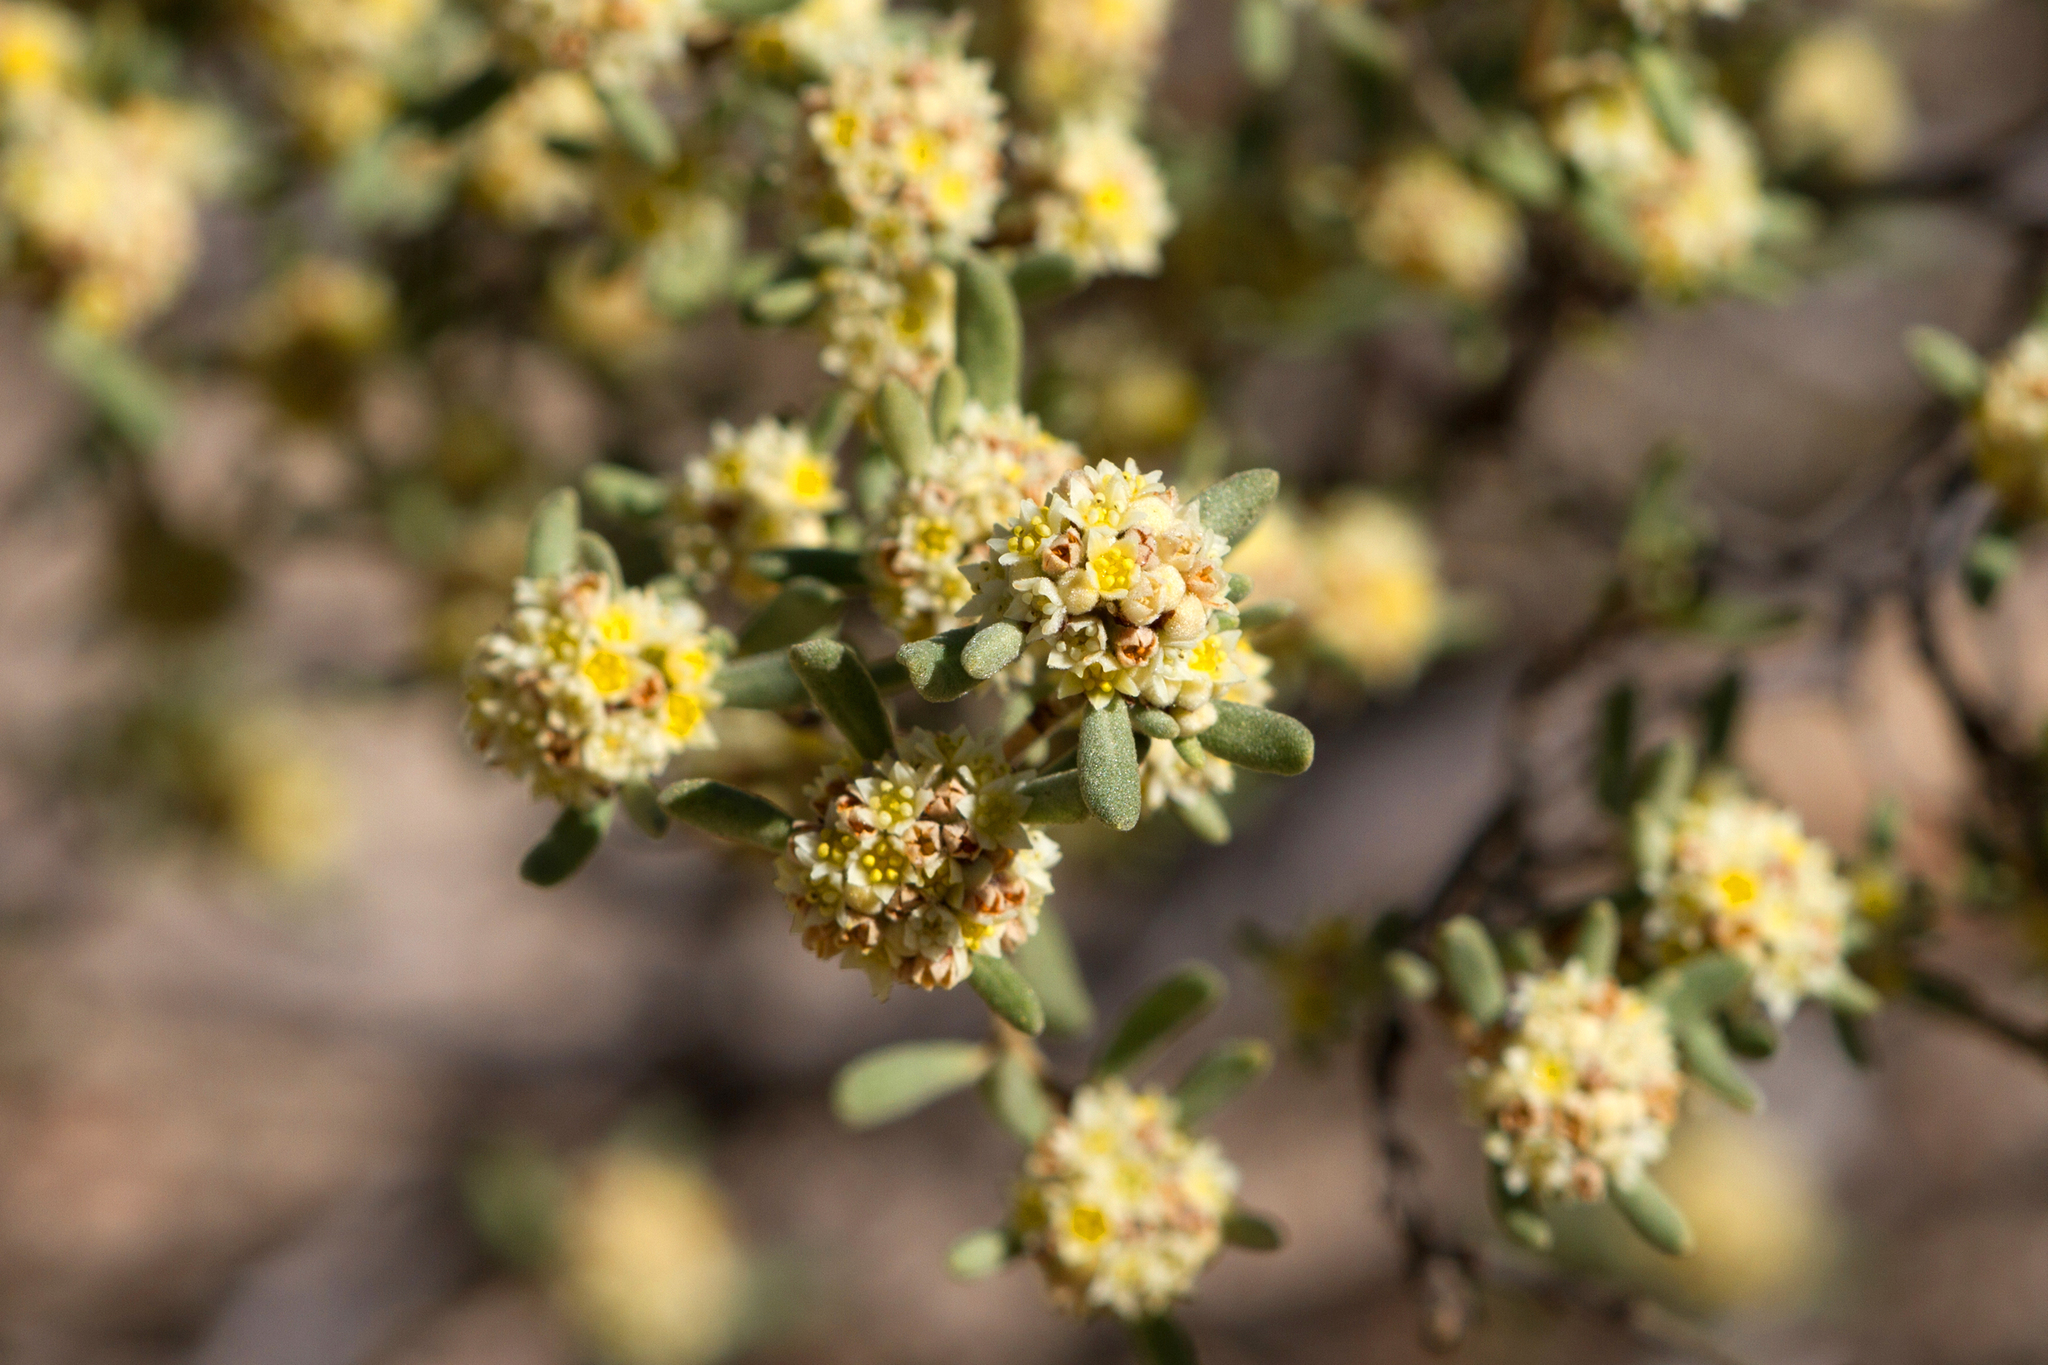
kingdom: Plantae
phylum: Tracheophyta
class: Magnoliopsida
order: Rosales
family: Rhamnaceae
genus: Spyridium
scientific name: Spyridium subochreatum
